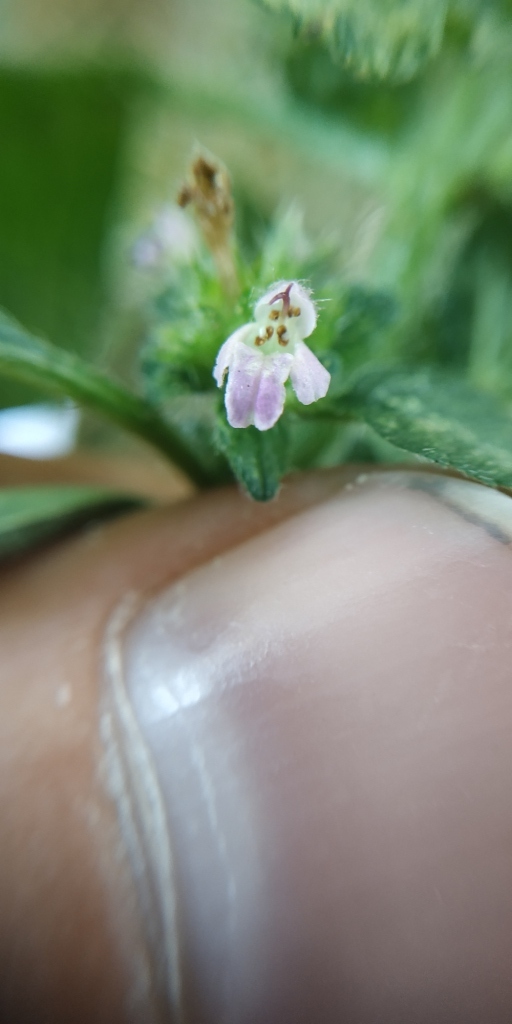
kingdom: Plantae
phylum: Tracheophyta
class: Magnoliopsida
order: Lamiales
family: Lamiaceae
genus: Galeopsis
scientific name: Galeopsis bifida
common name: Bifid hemp-nettle
